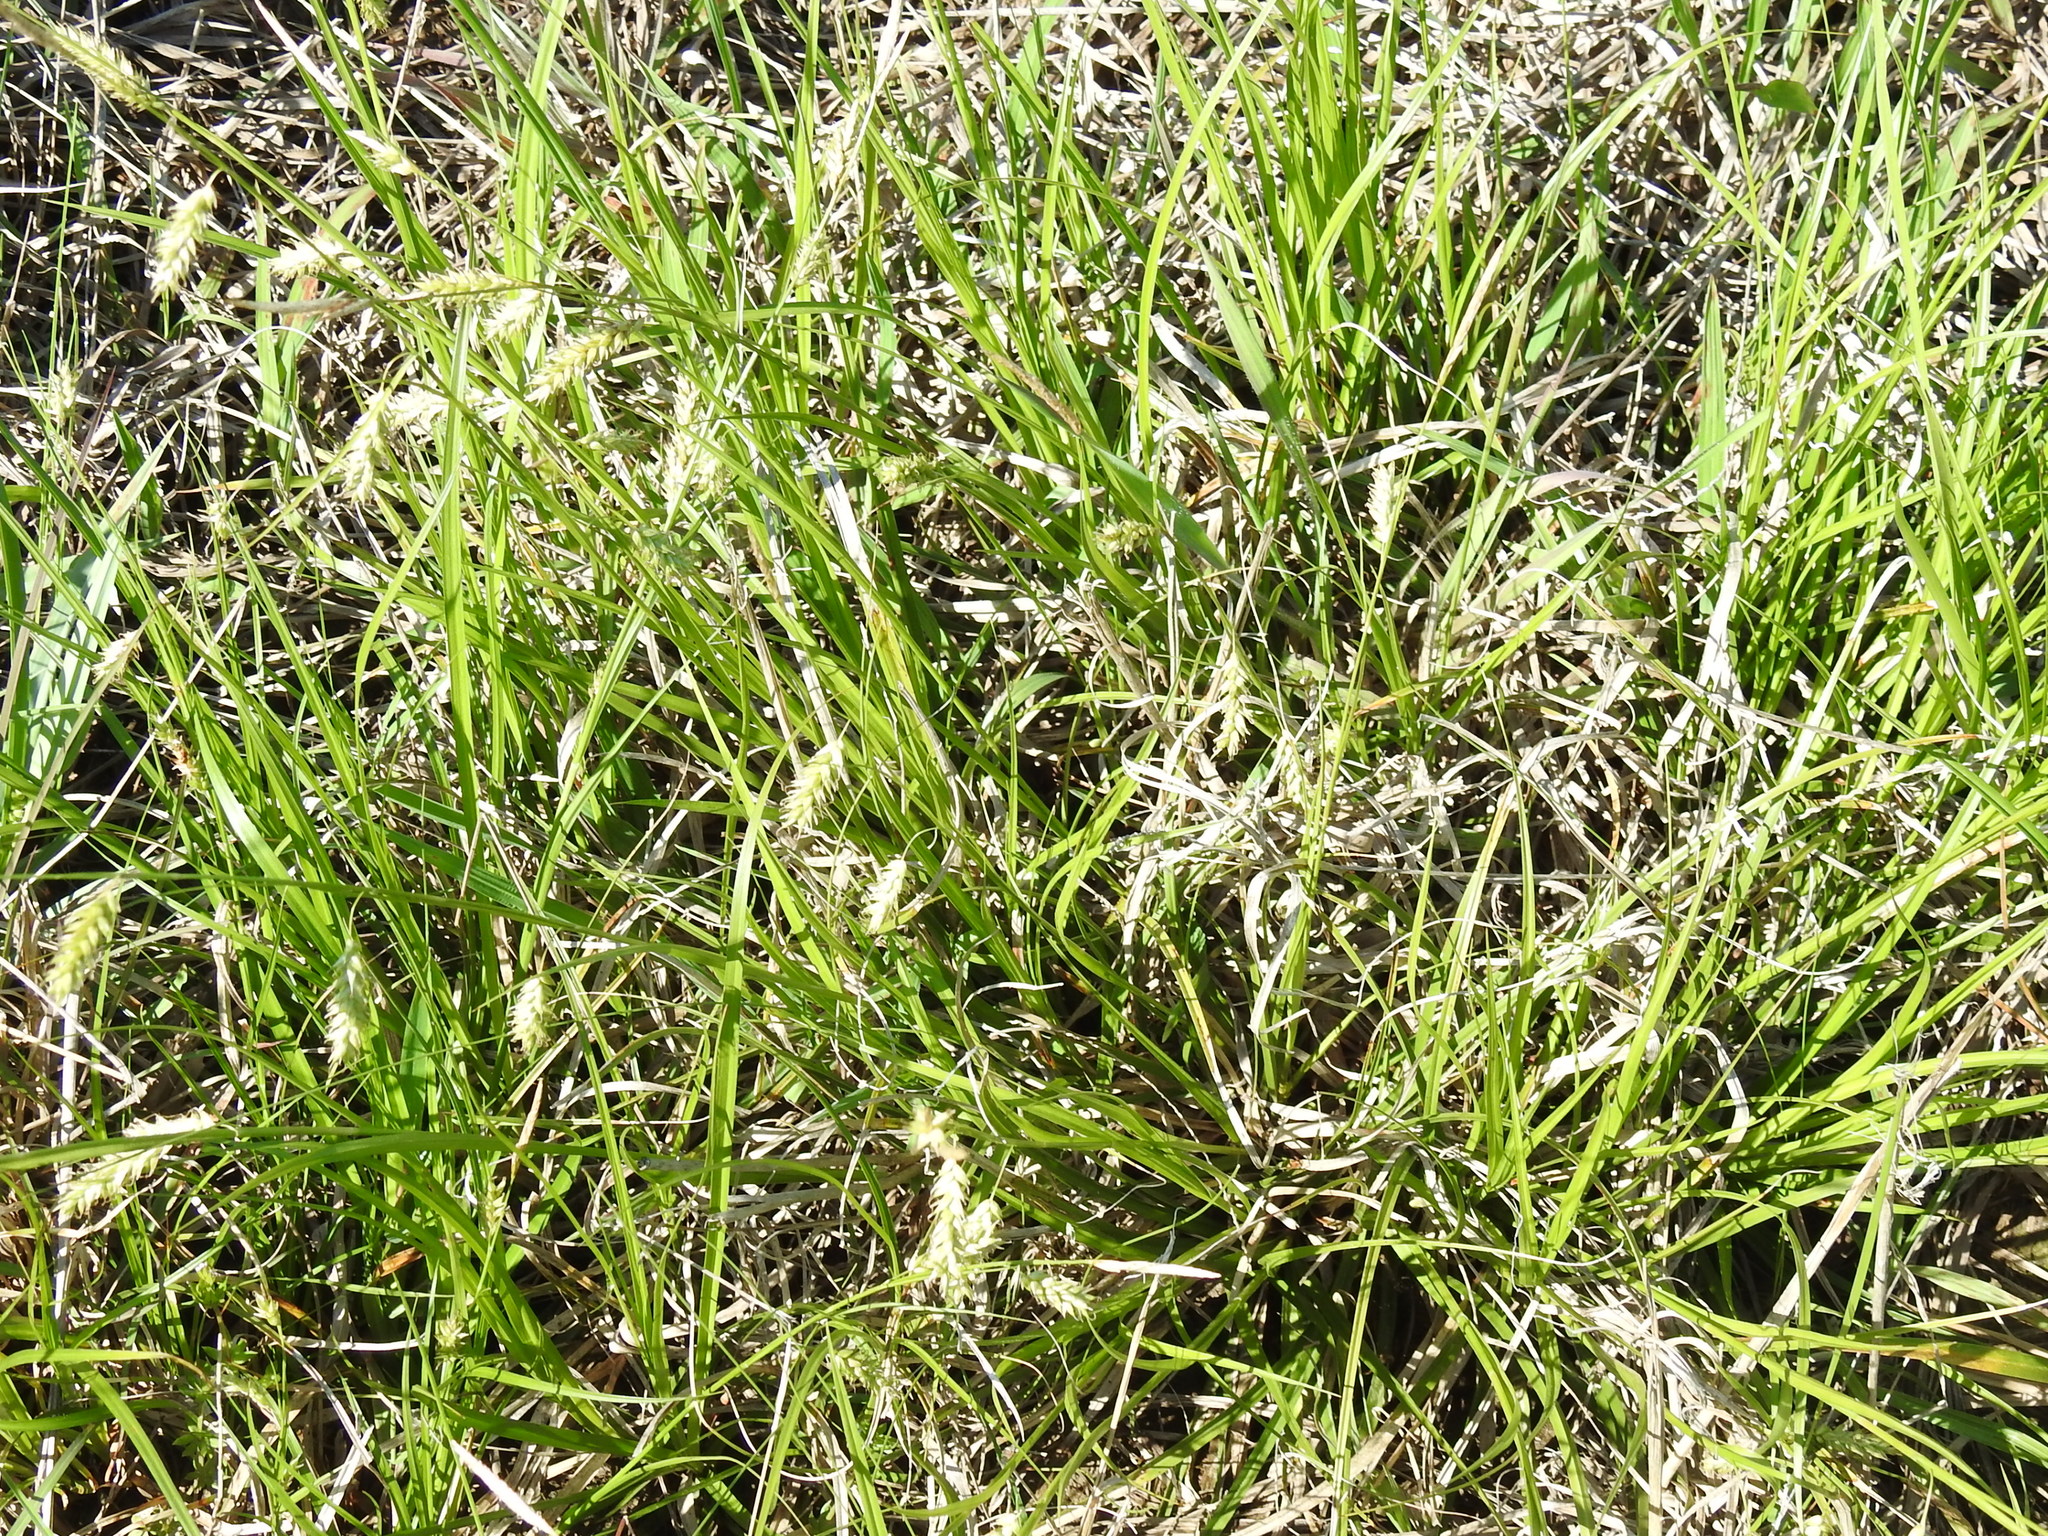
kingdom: Plantae
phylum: Tracheophyta
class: Liliopsida
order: Poales
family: Cyperaceae
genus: Carex
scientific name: Carex cherokeensis
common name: Cherokee sedge
